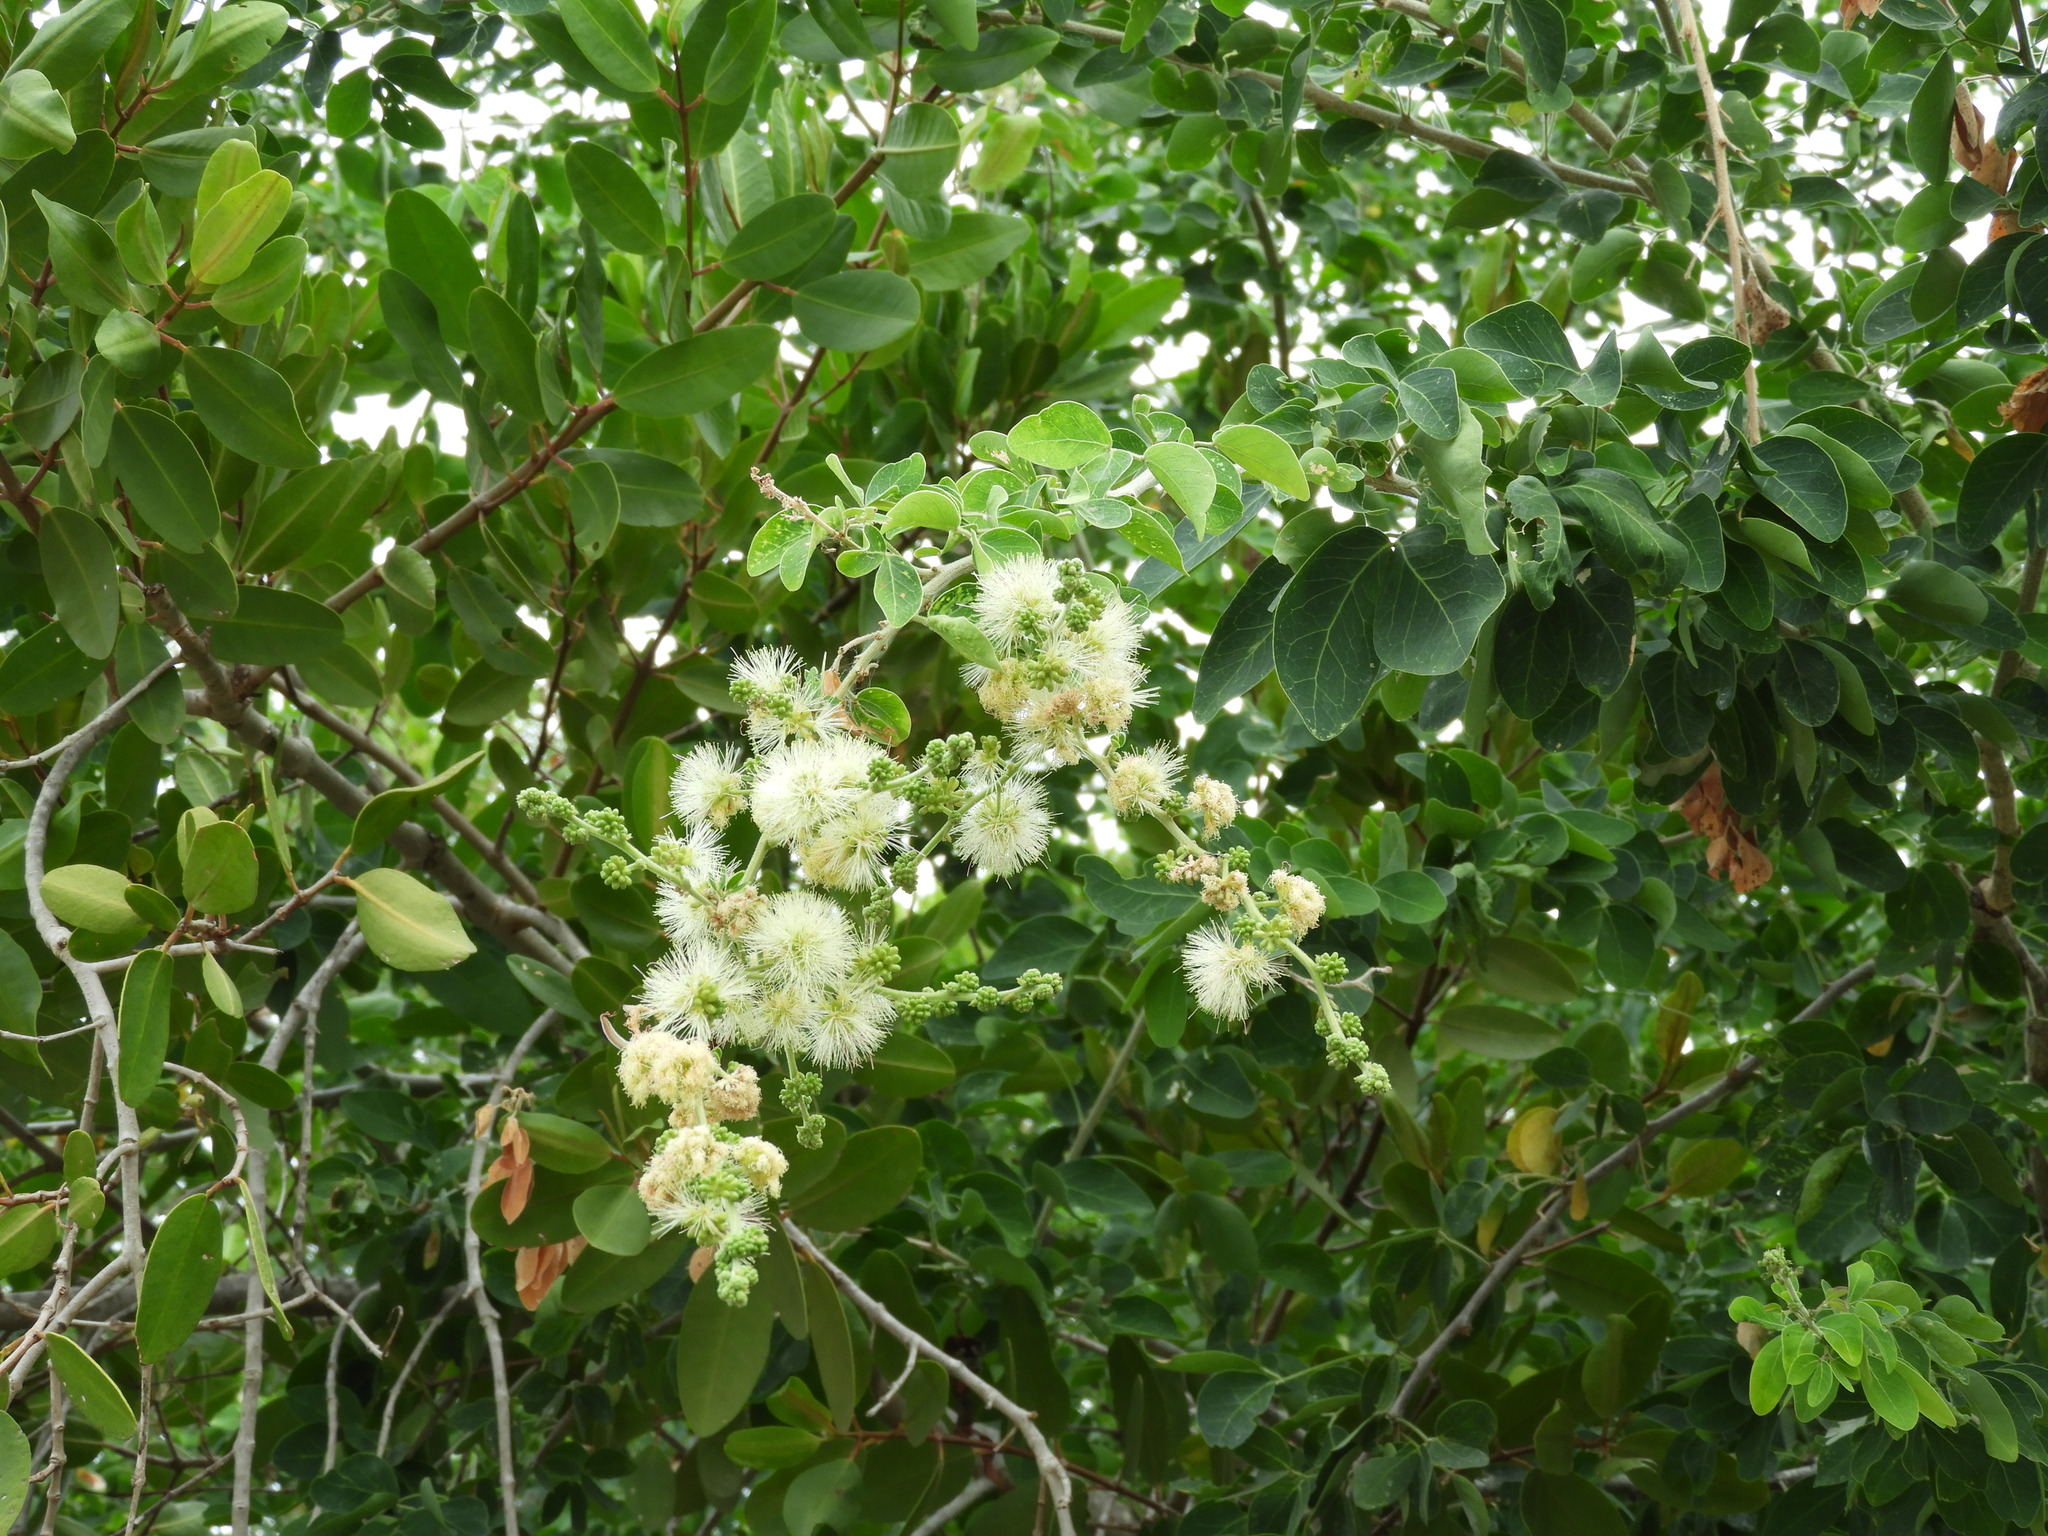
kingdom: Plantae
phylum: Tracheophyta
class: Magnoliopsida
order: Fabales
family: Fabaceae
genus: Pithecellobium
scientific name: Pithecellobium dulce
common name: Monkeypod
